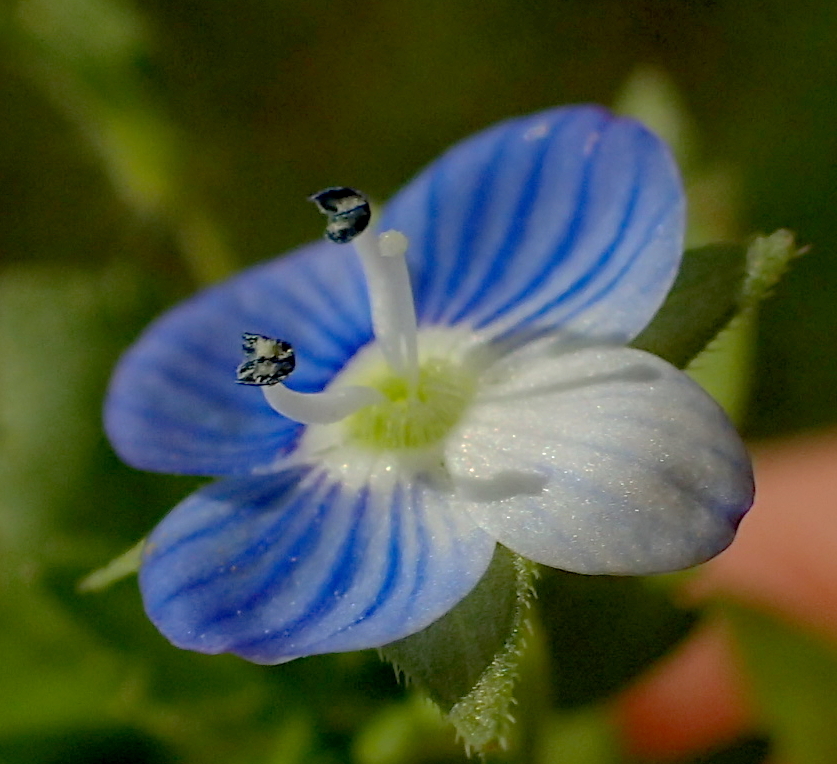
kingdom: Plantae
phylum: Tracheophyta
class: Magnoliopsida
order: Lamiales
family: Plantaginaceae
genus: Veronica
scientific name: Veronica persica
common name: Common field-speedwell
